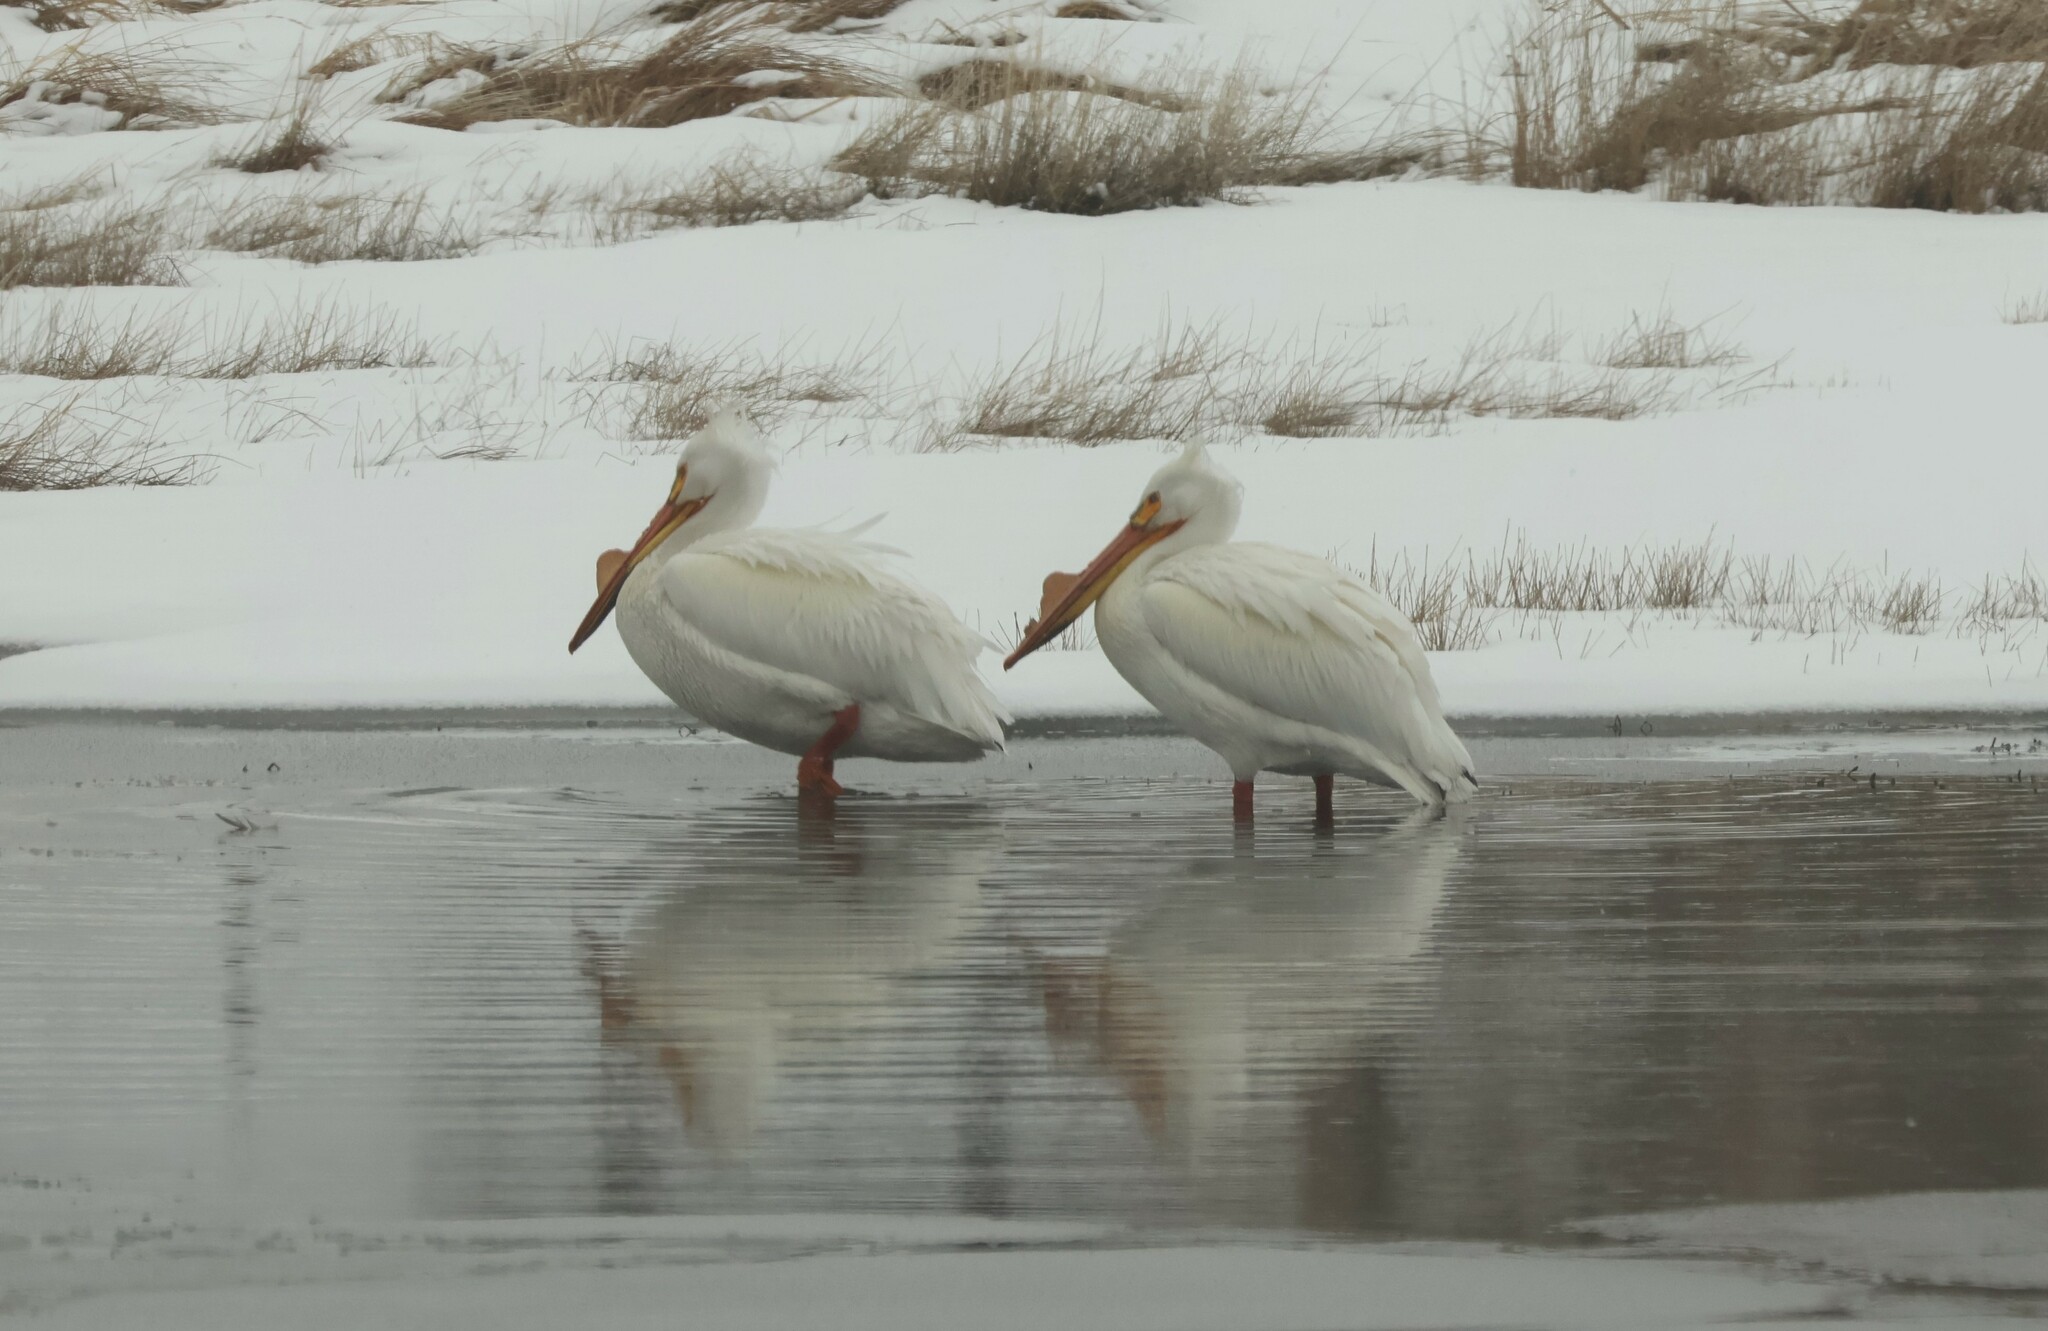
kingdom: Animalia
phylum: Chordata
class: Aves
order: Pelecaniformes
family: Pelecanidae
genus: Pelecanus
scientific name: Pelecanus erythrorhynchos
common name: American white pelican
